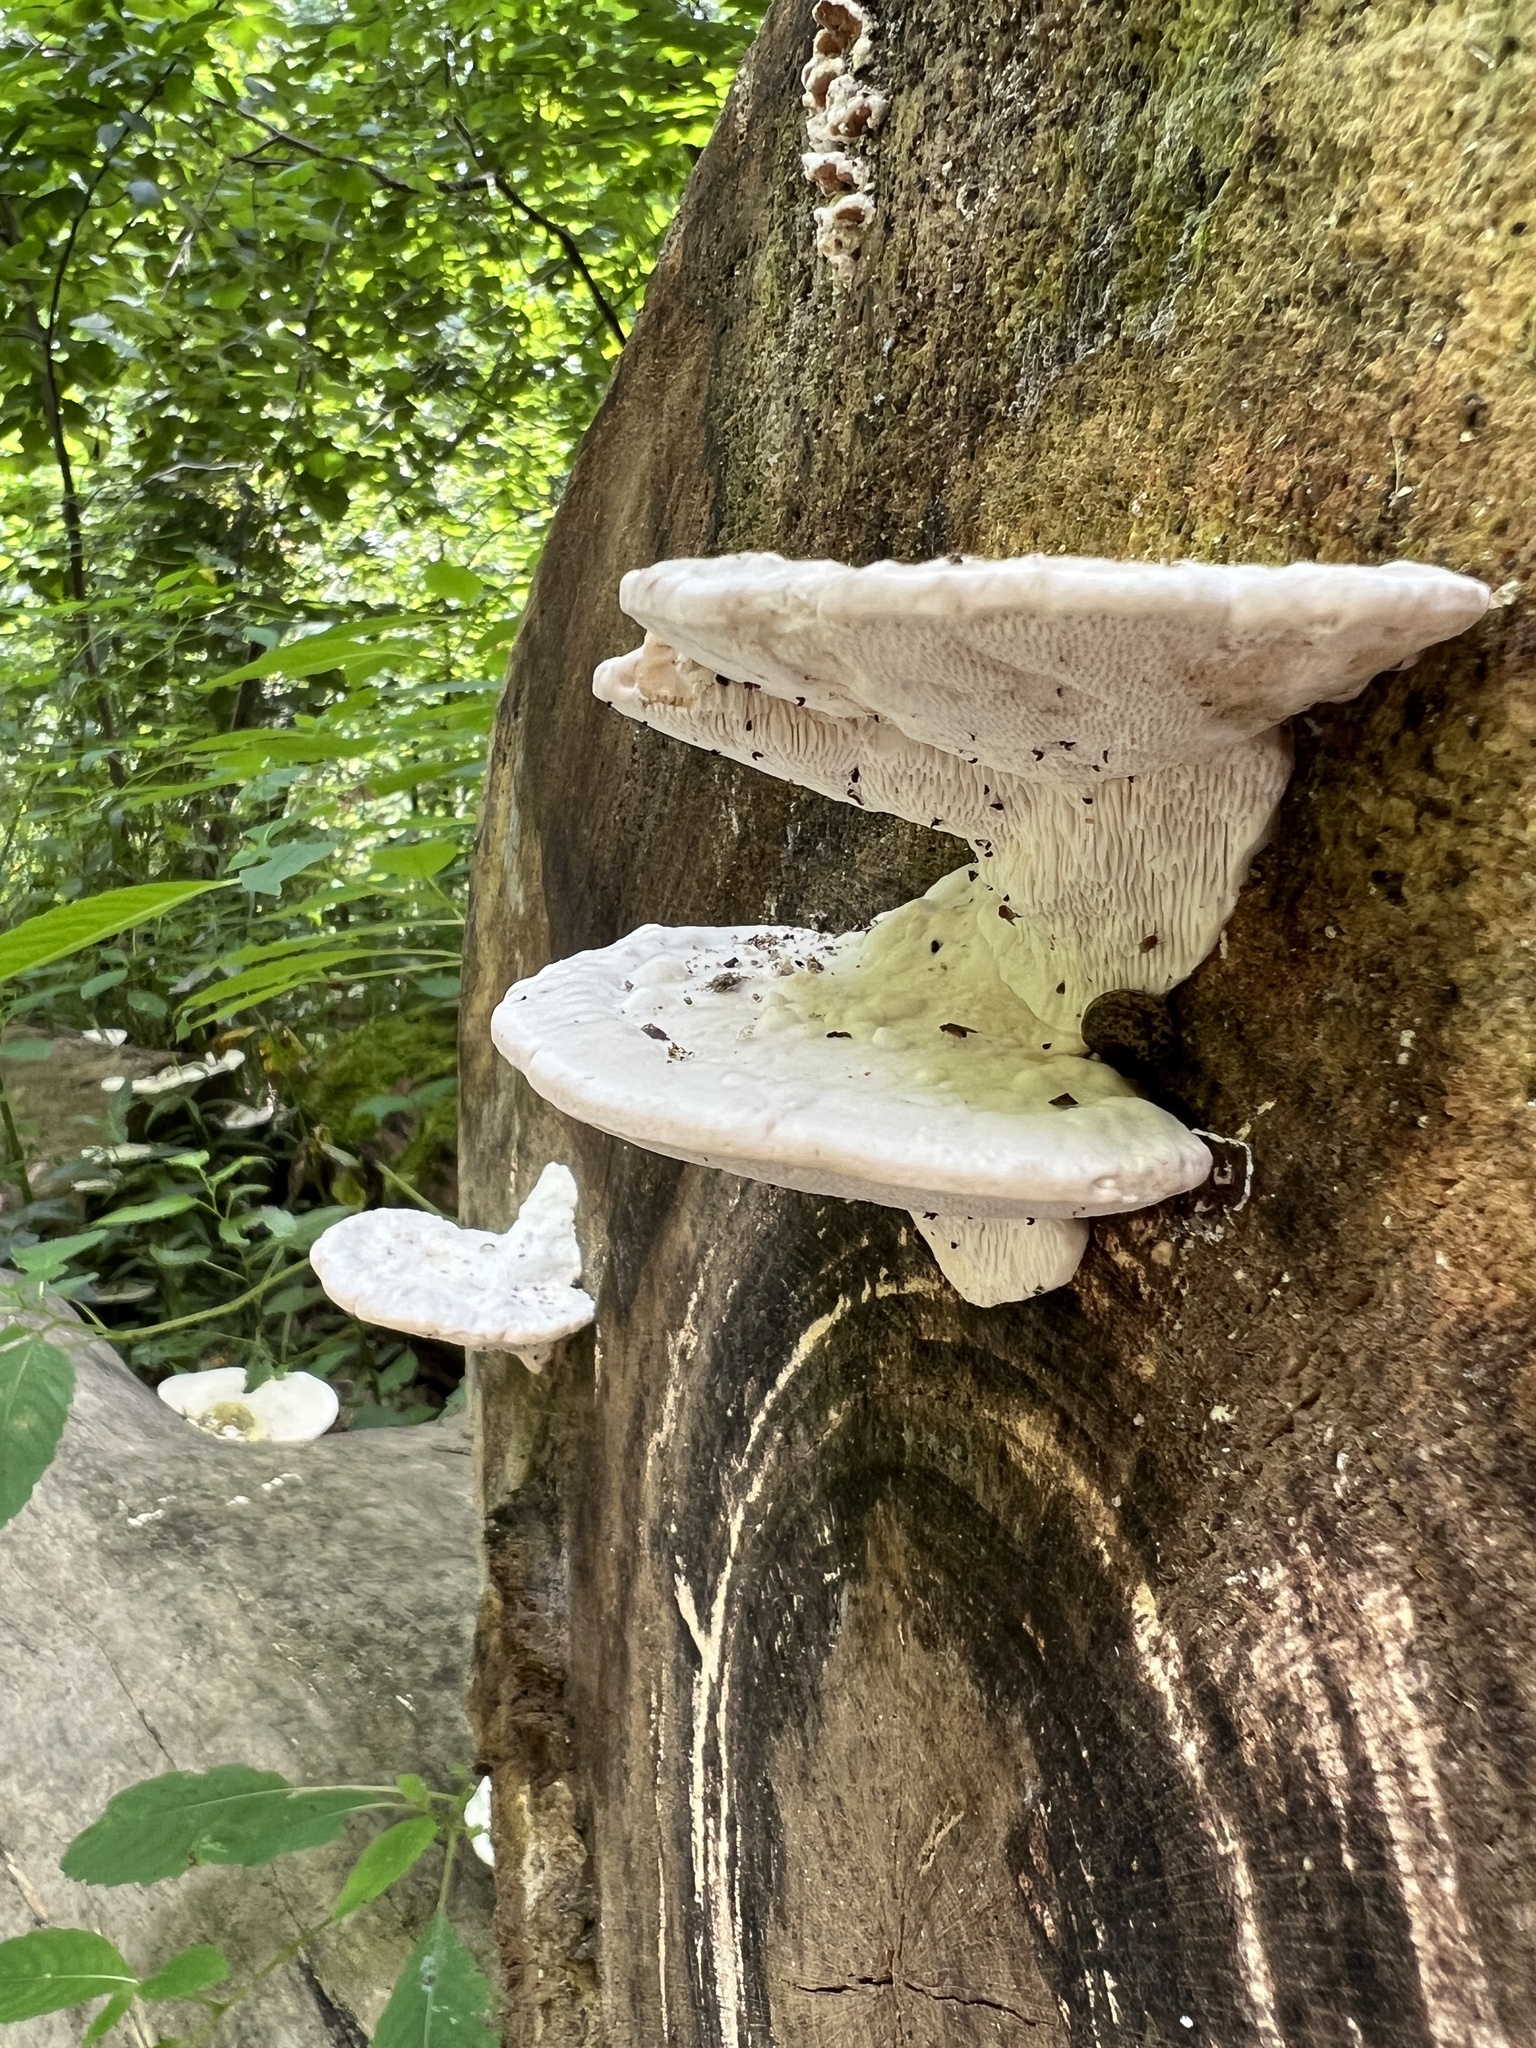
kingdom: Fungi
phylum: Basidiomycota
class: Agaricomycetes
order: Polyporales
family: Polyporaceae
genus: Trametes
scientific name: Trametes gibbosa
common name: Lumpy bracket
